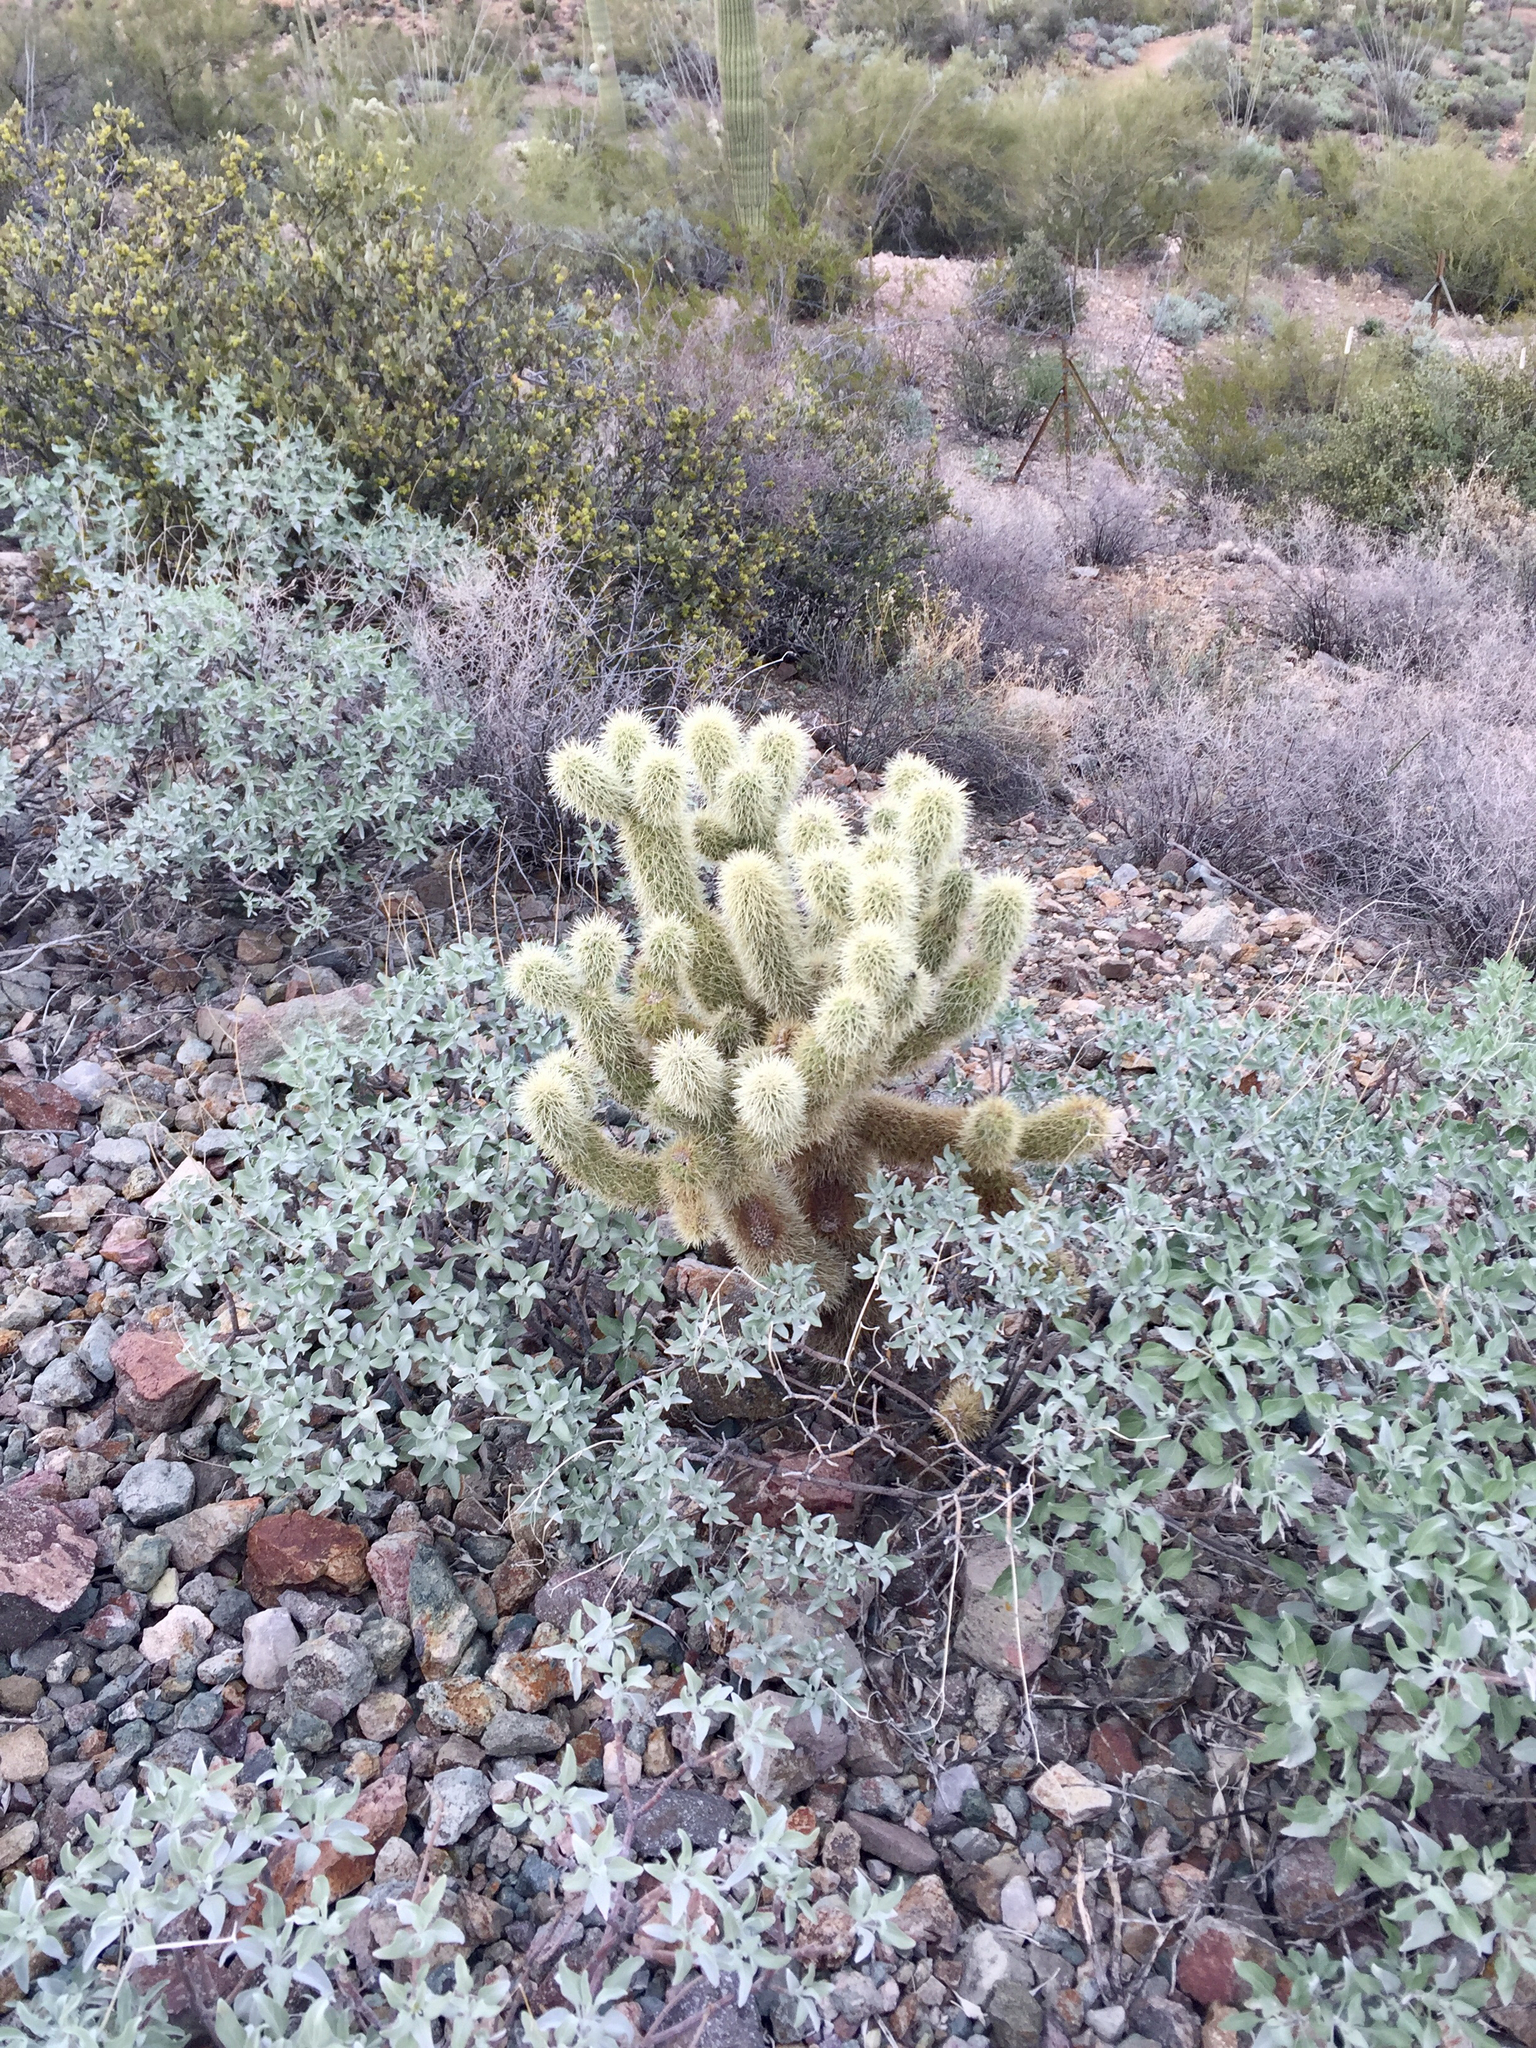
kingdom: Plantae
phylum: Tracheophyta
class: Magnoliopsida
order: Caryophyllales
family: Cactaceae
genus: Cylindropuntia
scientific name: Cylindropuntia fosbergii
